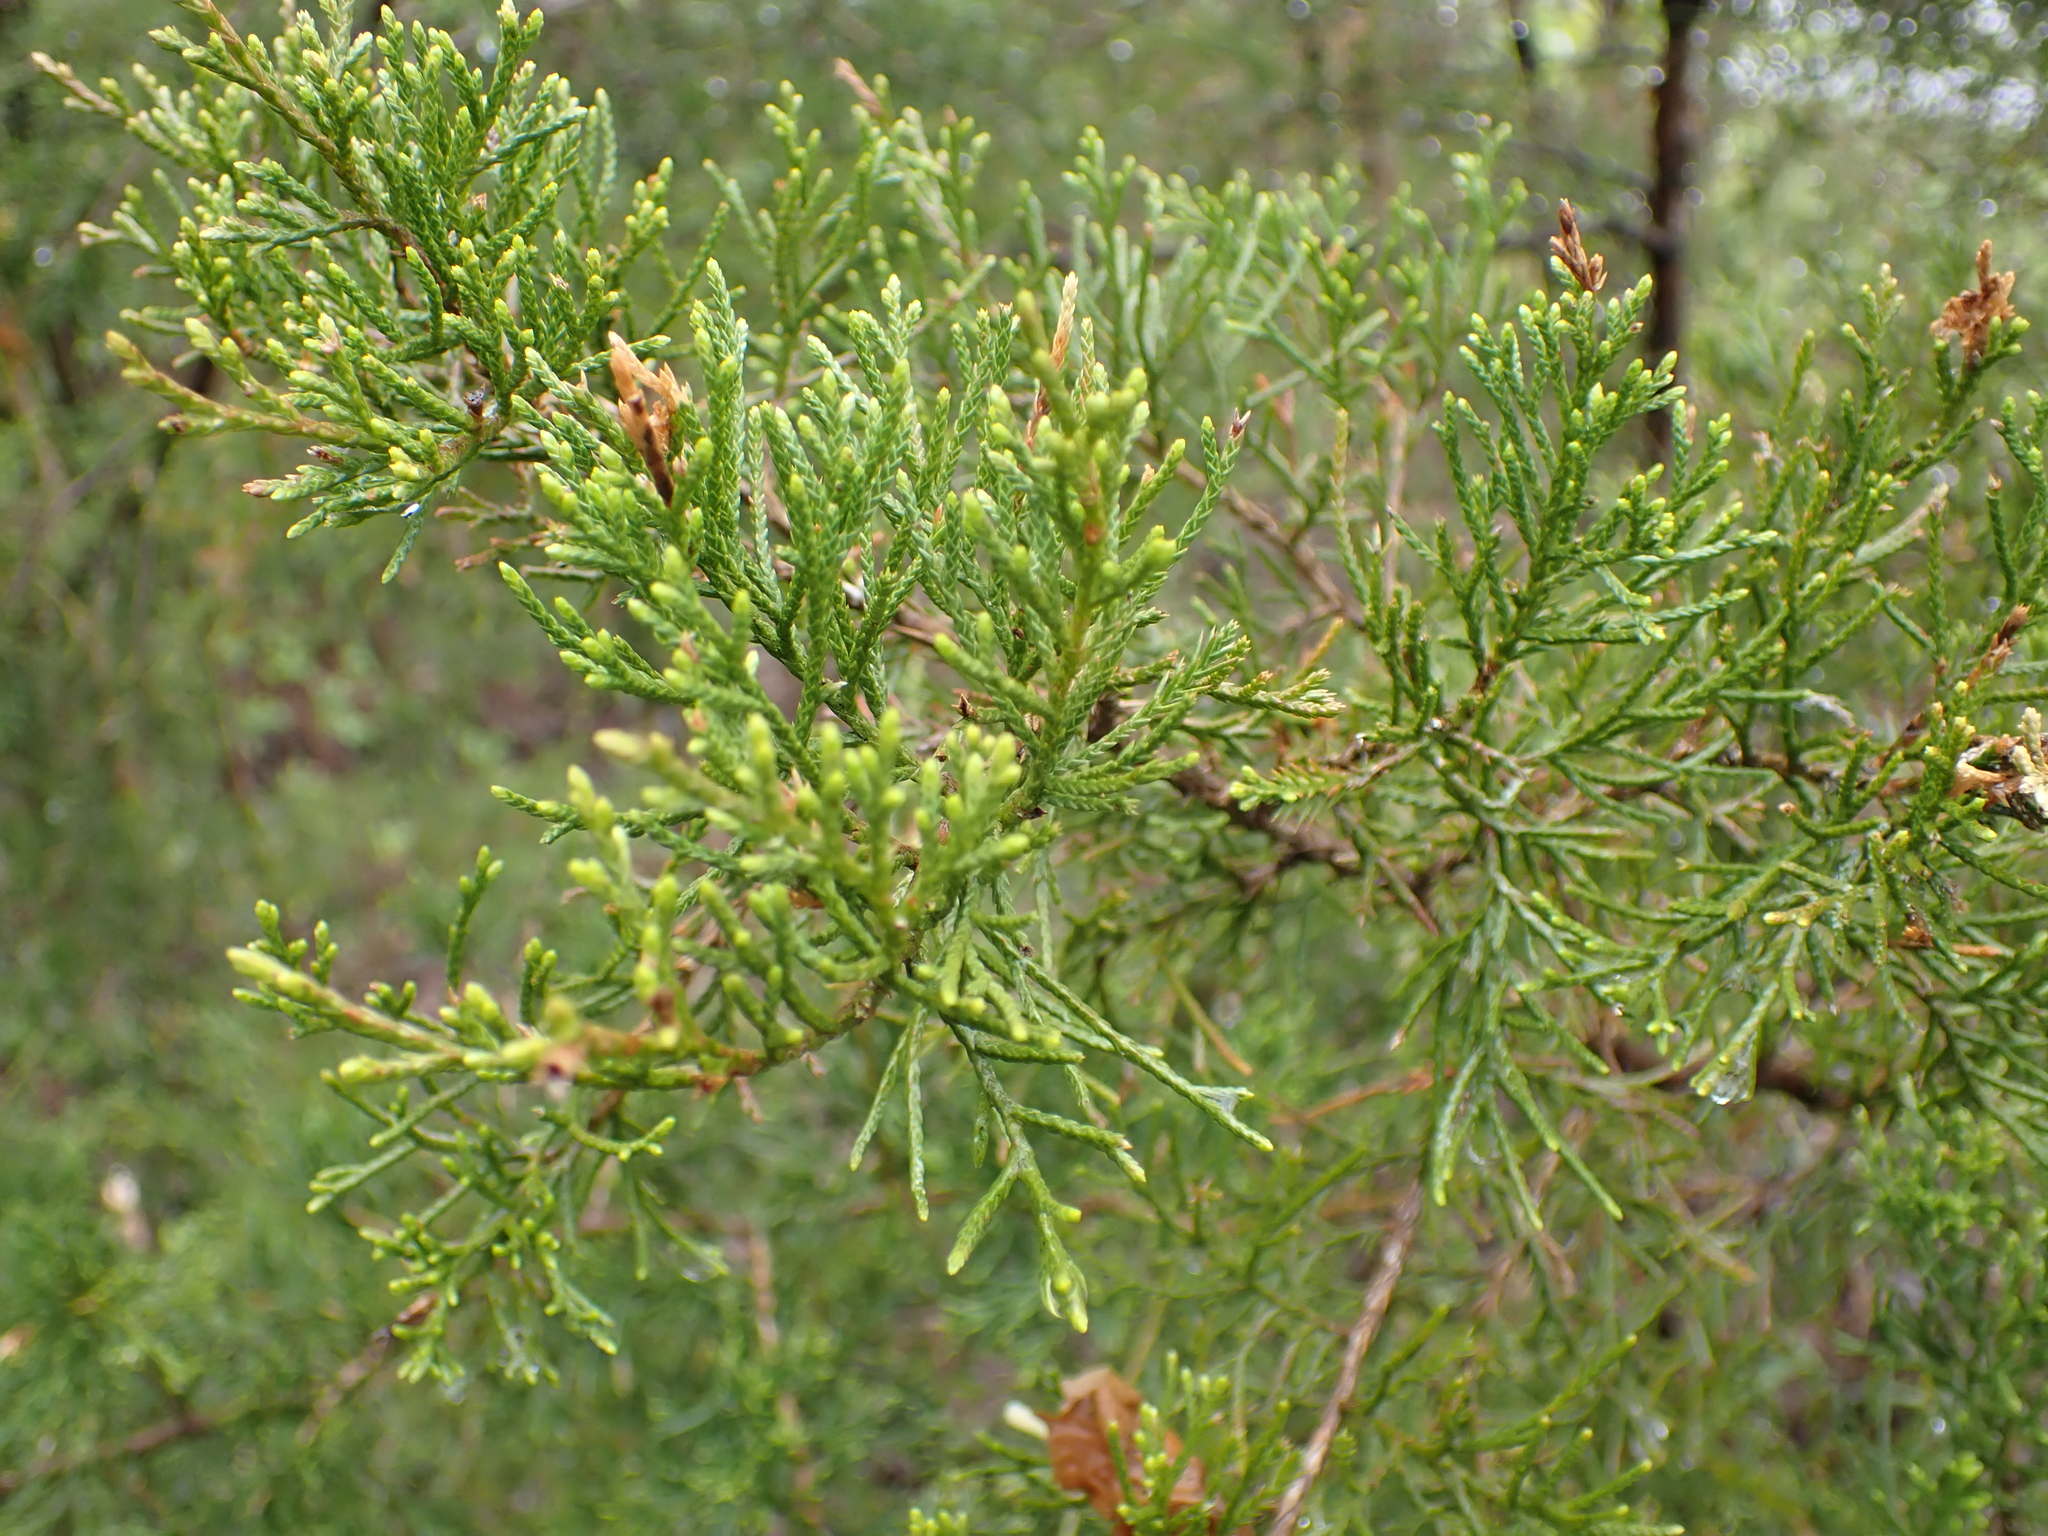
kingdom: Plantae
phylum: Tracheophyta
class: Pinopsida
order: Pinales
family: Cupressaceae
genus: Juniperus
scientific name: Juniperus virginiana
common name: Red juniper
